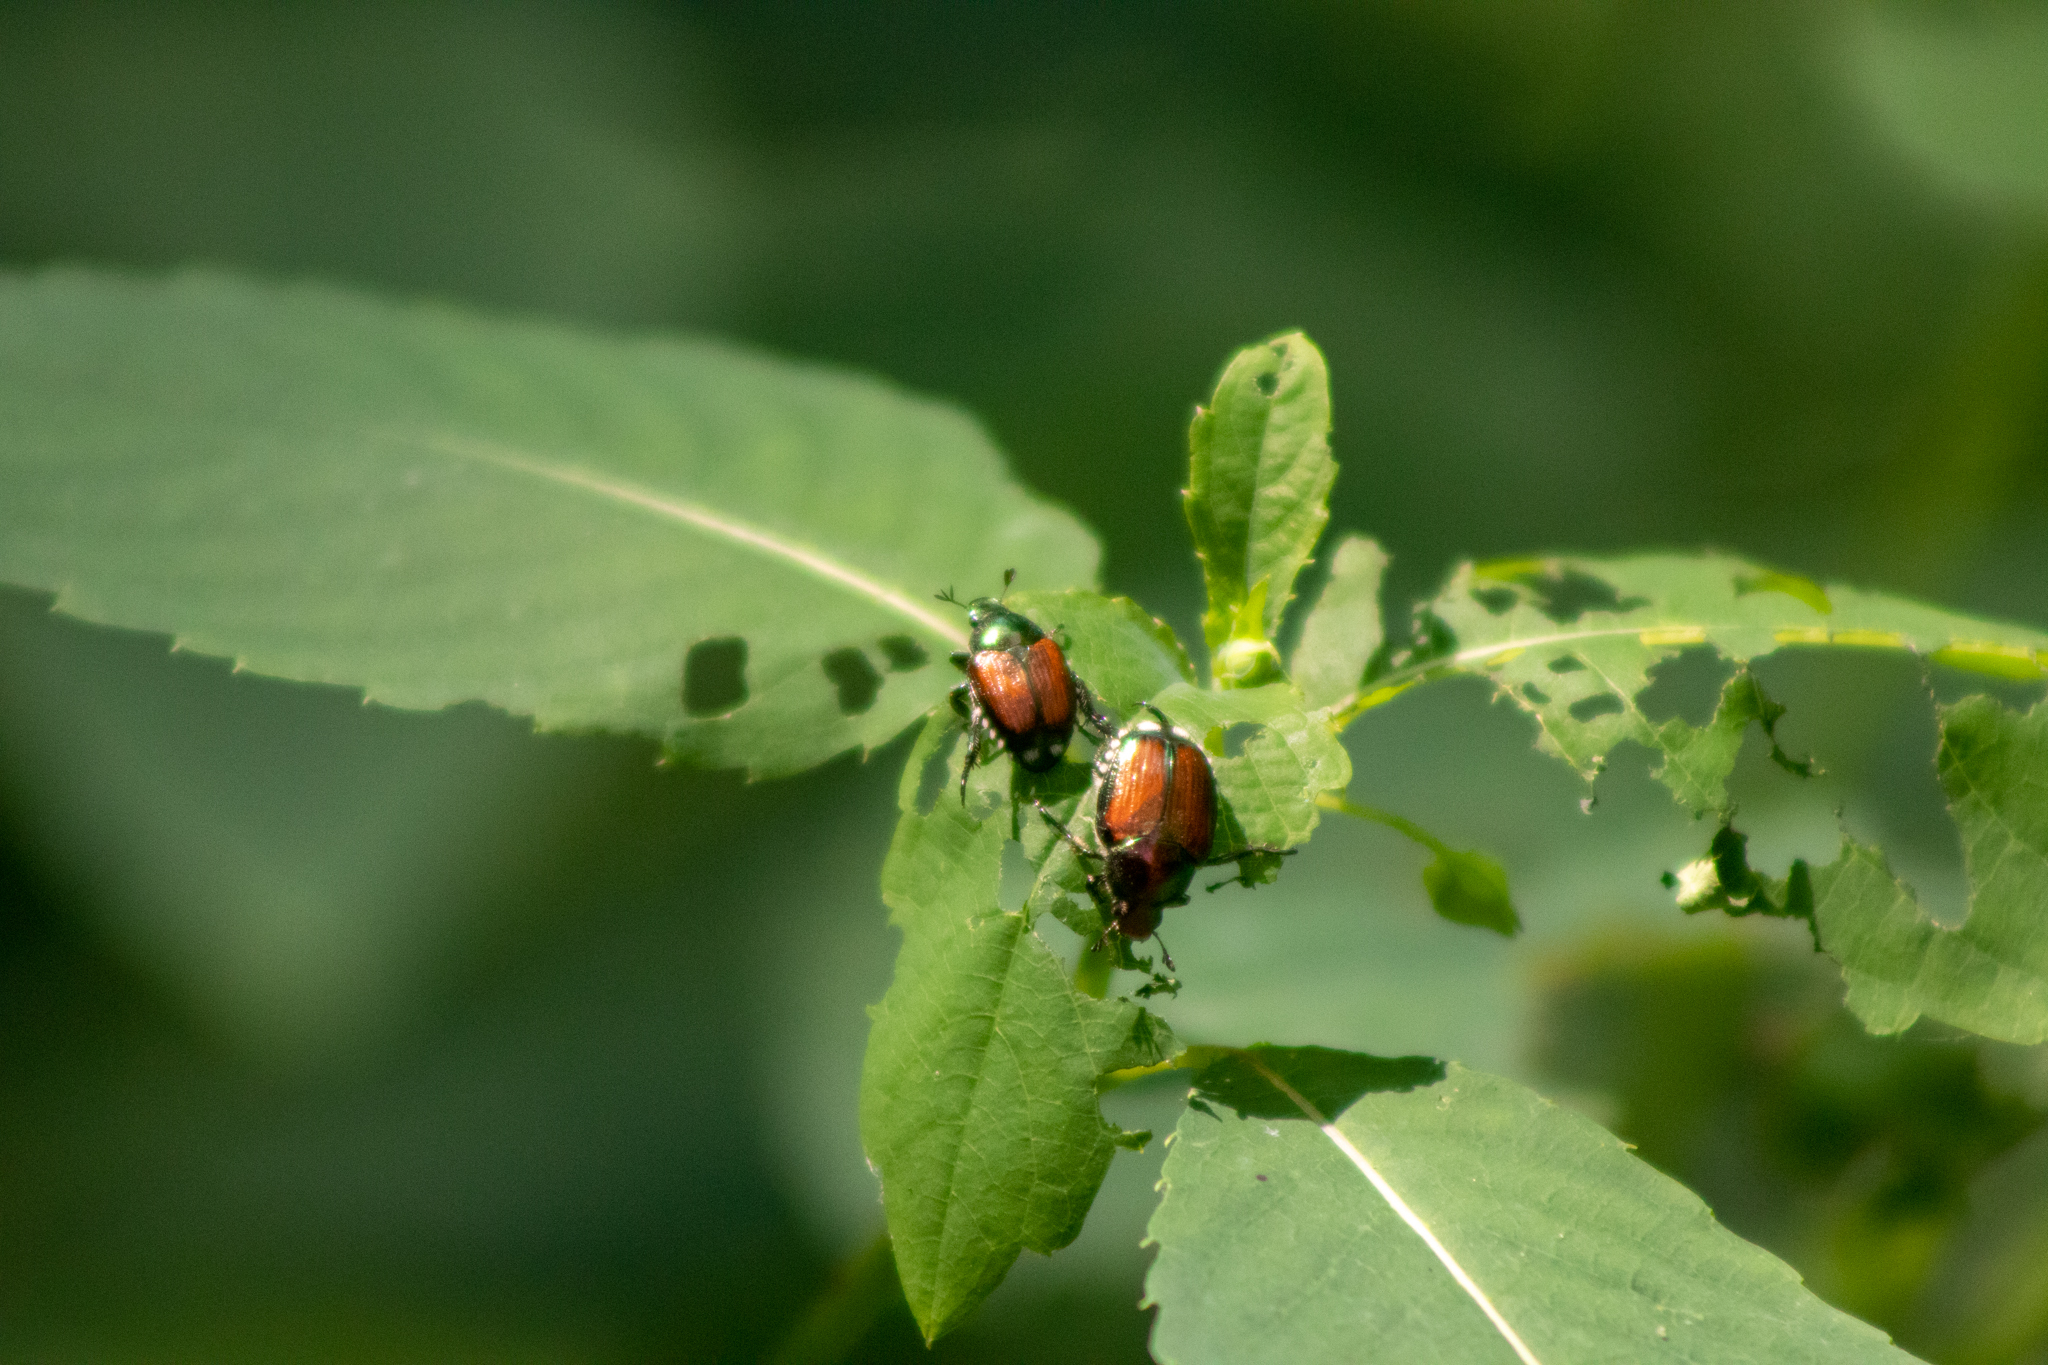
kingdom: Animalia
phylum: Arthropoda
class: Insecta
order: Coleoptera
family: Scarabaeidae
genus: Popillia
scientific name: Popillia japonica
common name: Japanese beetle
